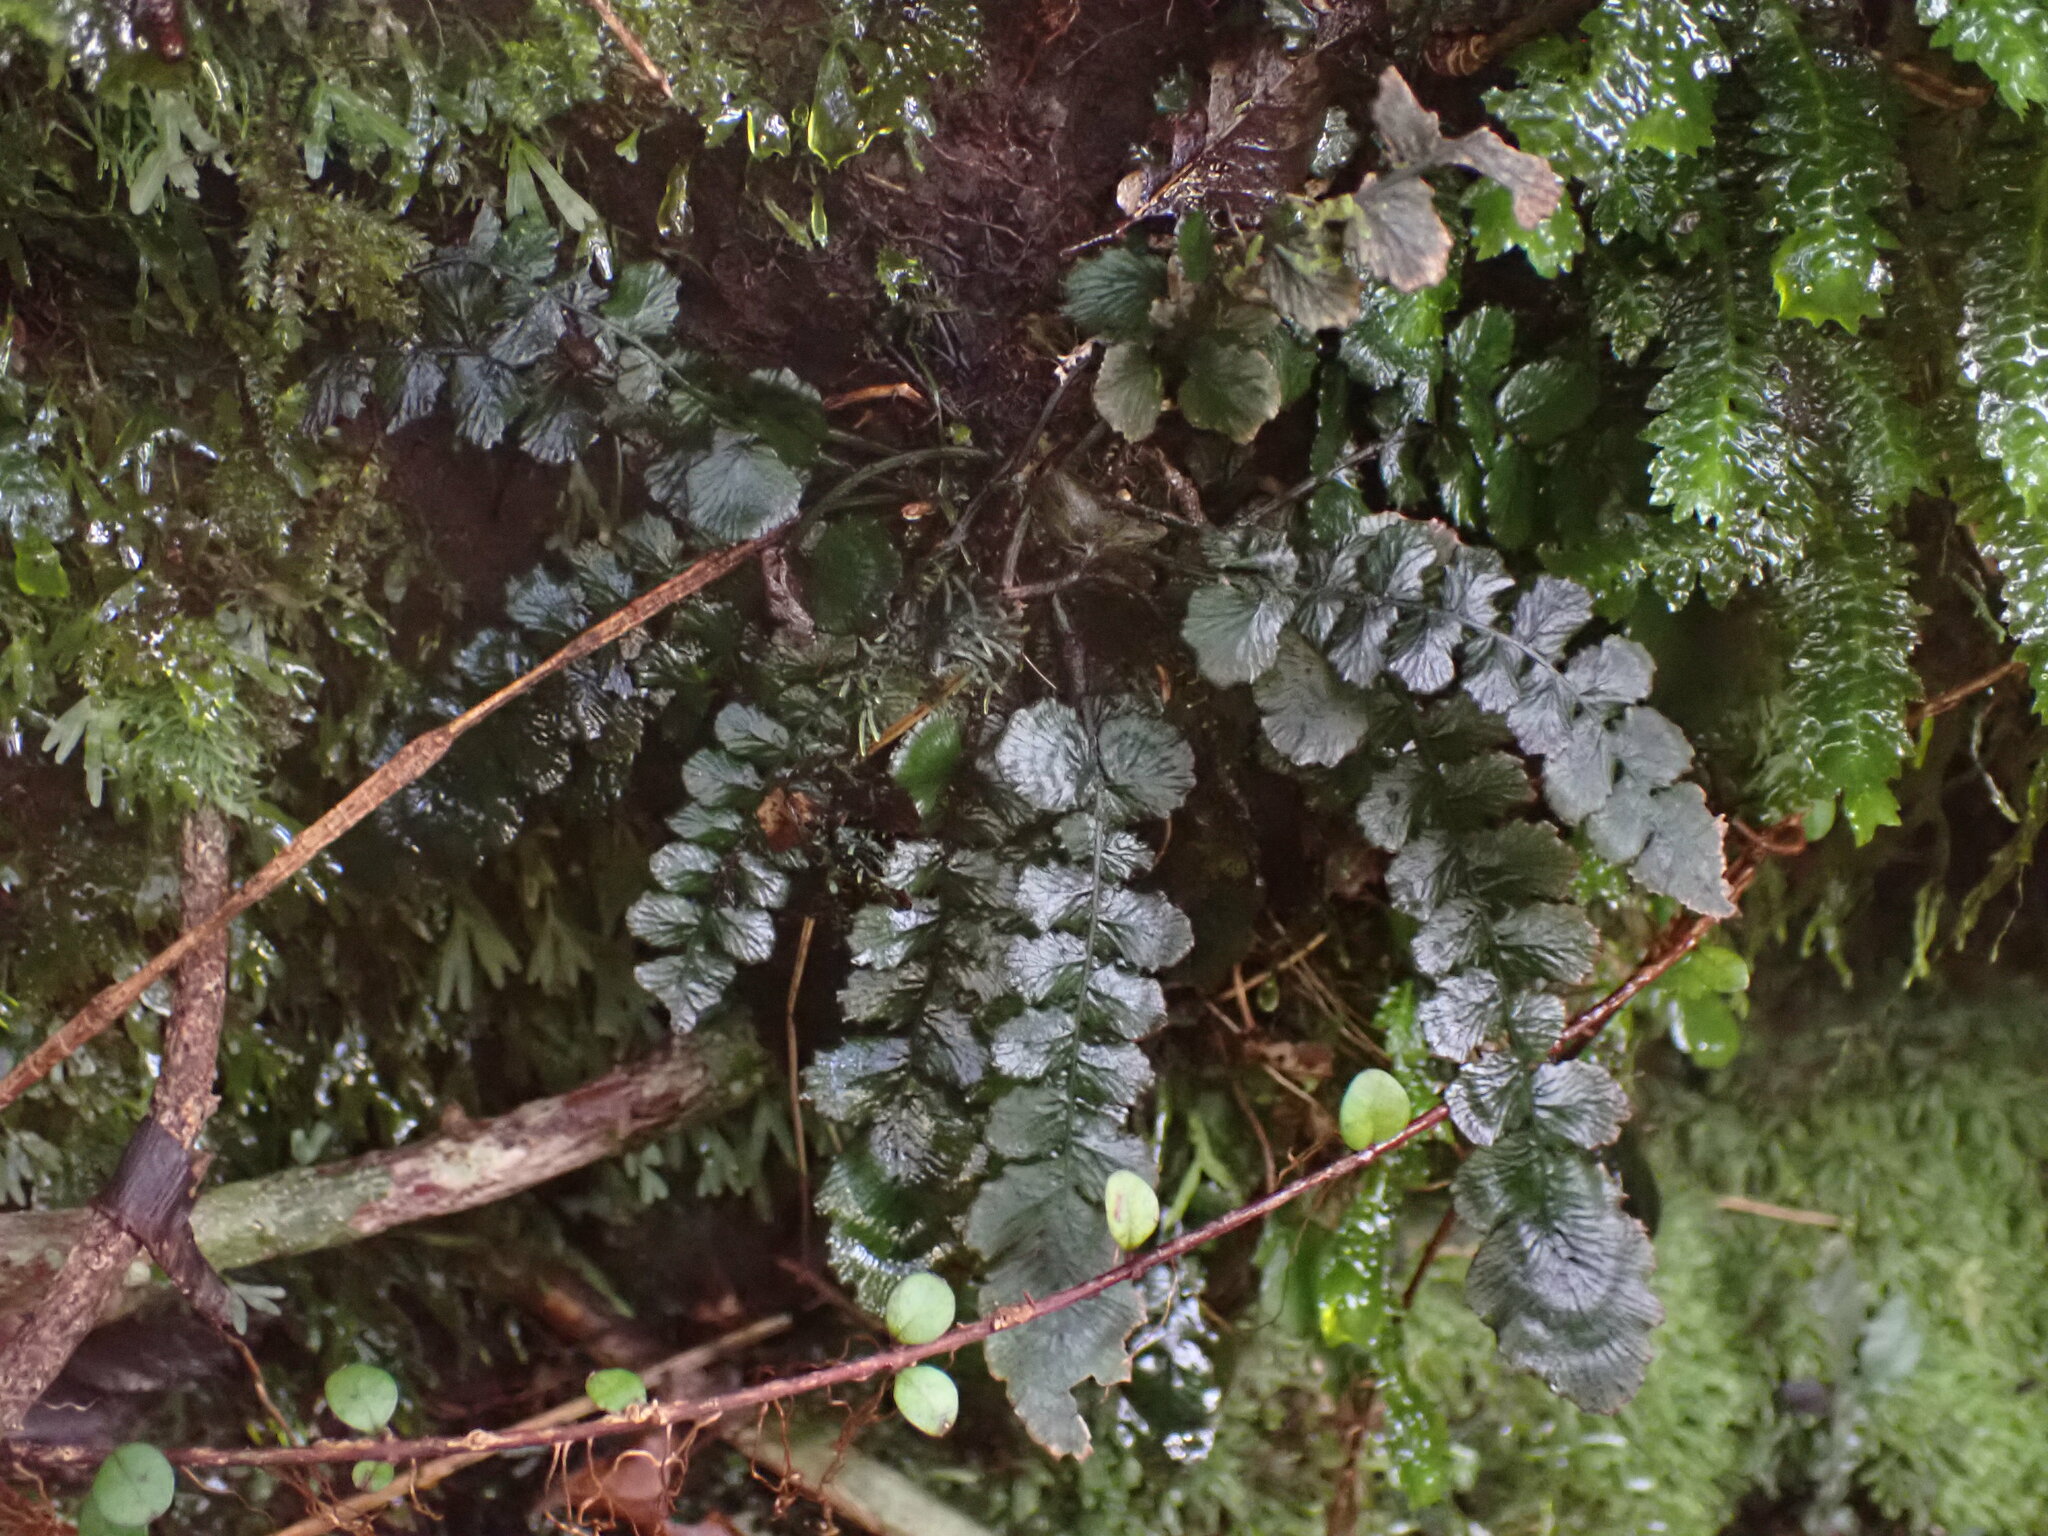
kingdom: Plantae
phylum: Tracheophyta
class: Polypodiopsida
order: Polypodiales
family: Blechnaceae
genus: Cranfillia
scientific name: Cranfillia nigra
